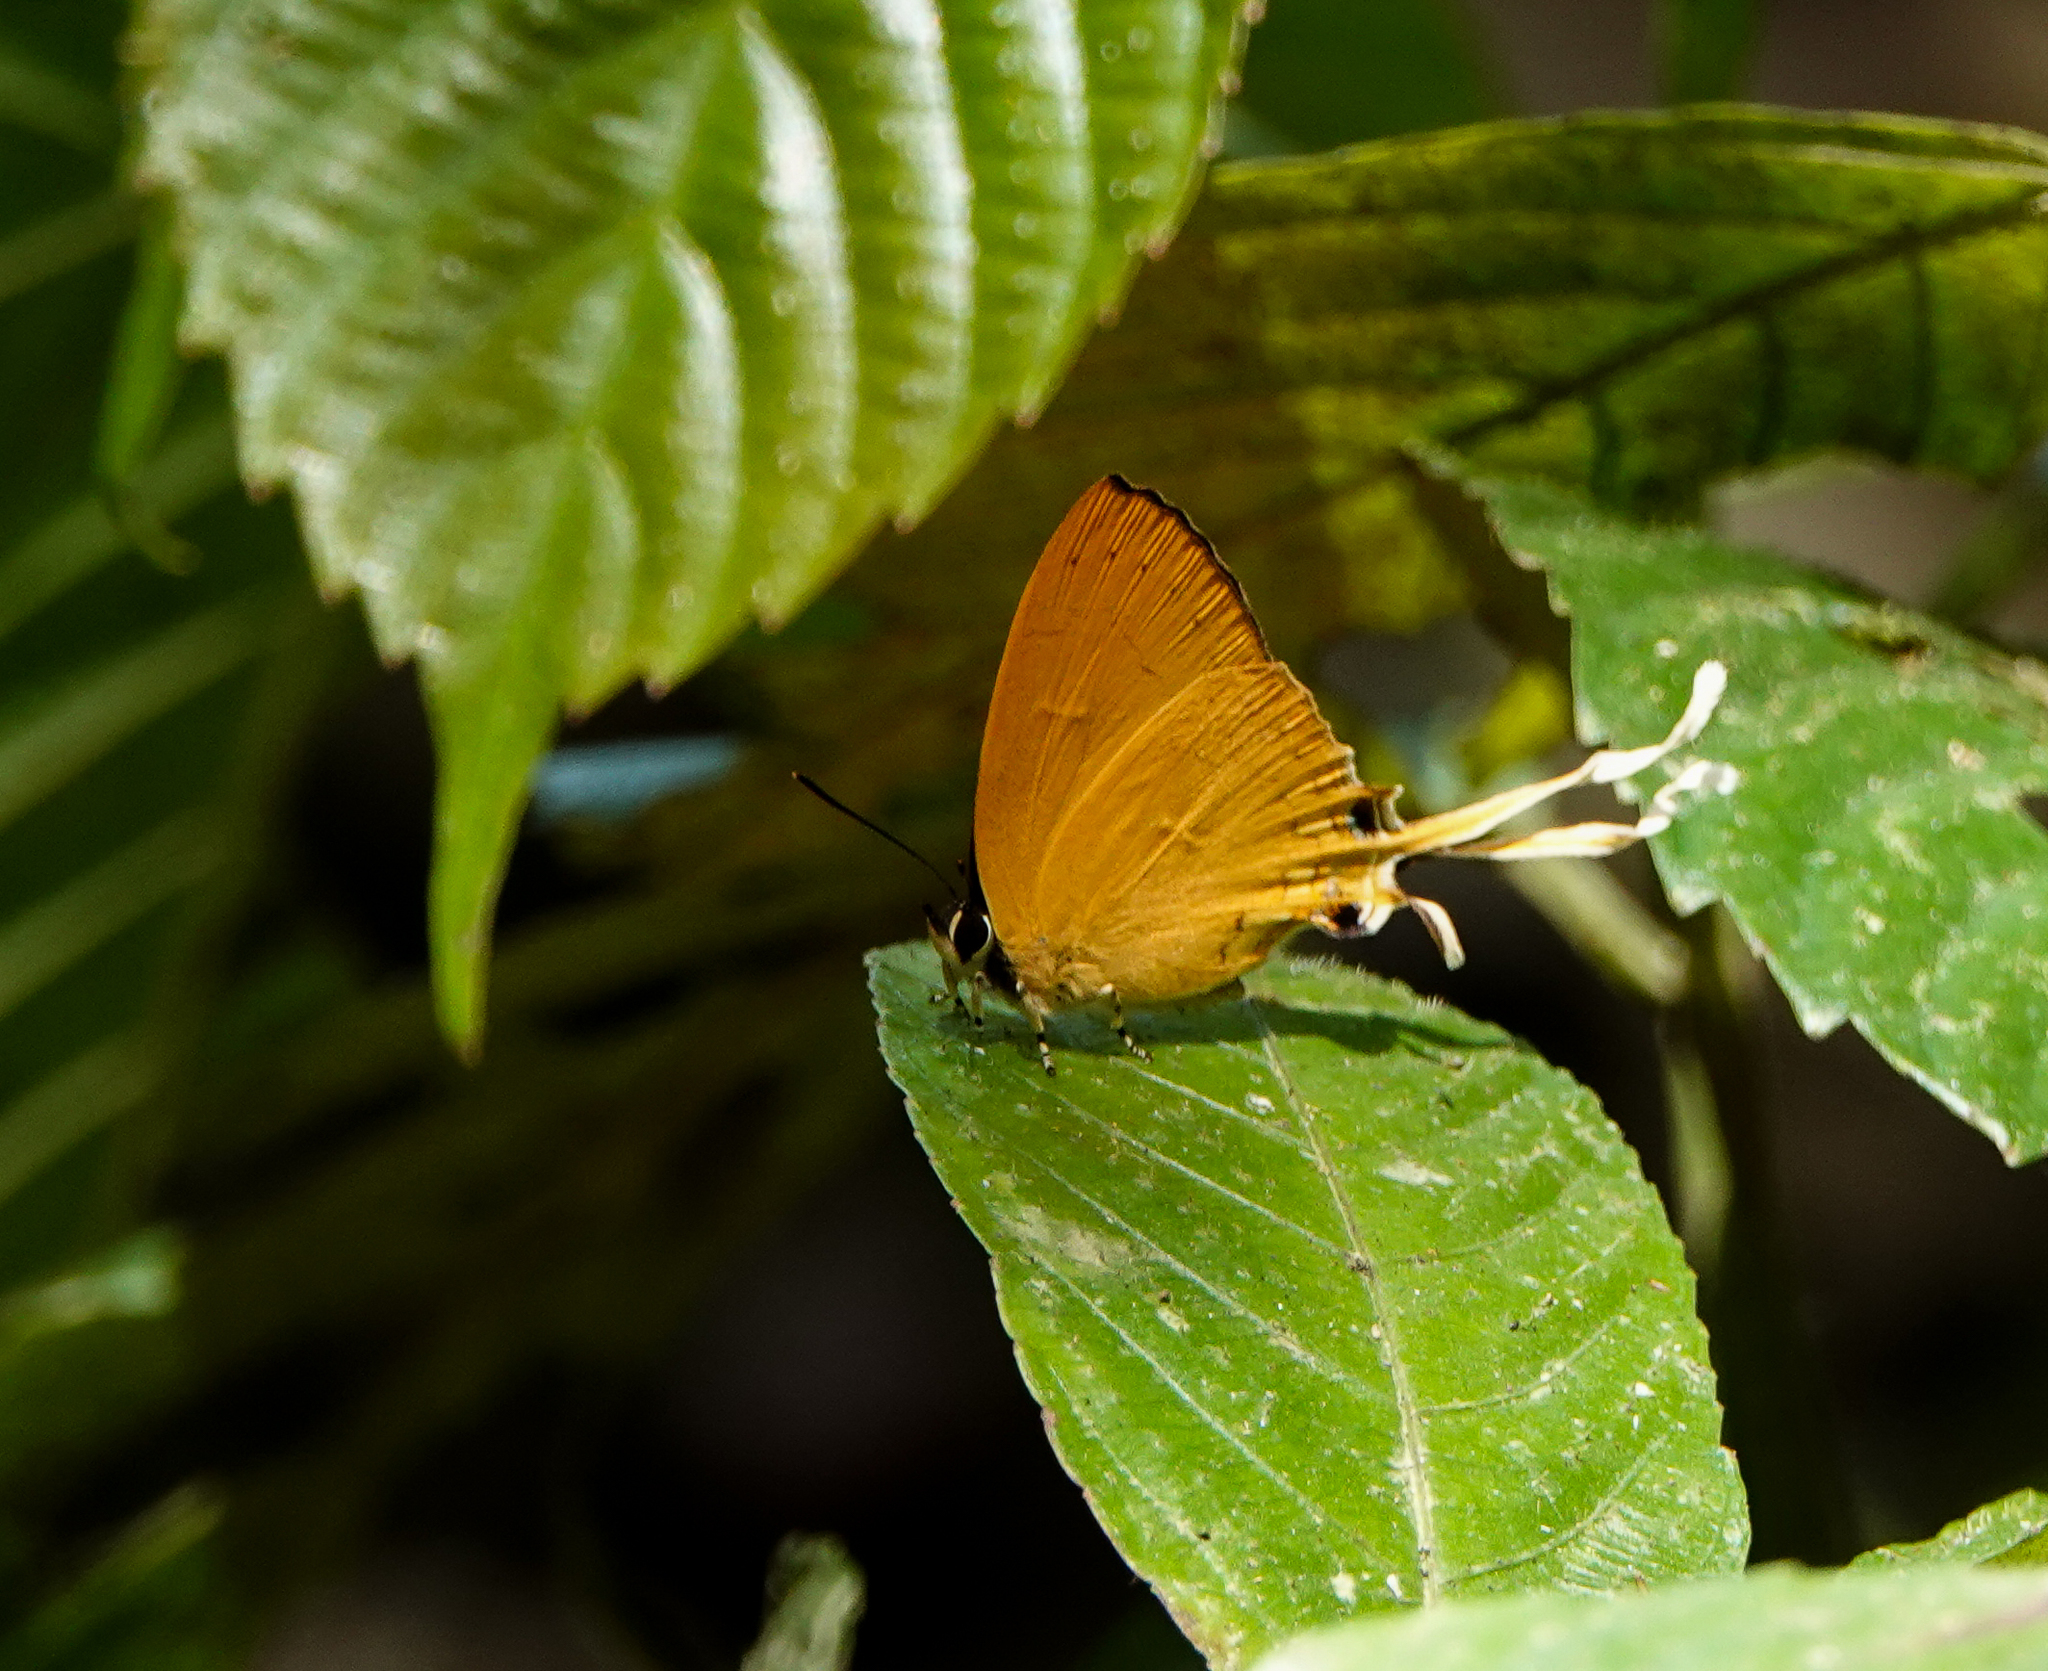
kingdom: Animalia
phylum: Arthropoda
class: Insecta
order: Lepidoptera
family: Lycaenidae
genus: Ticherra
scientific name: Ticherra acte
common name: Blue imperial
